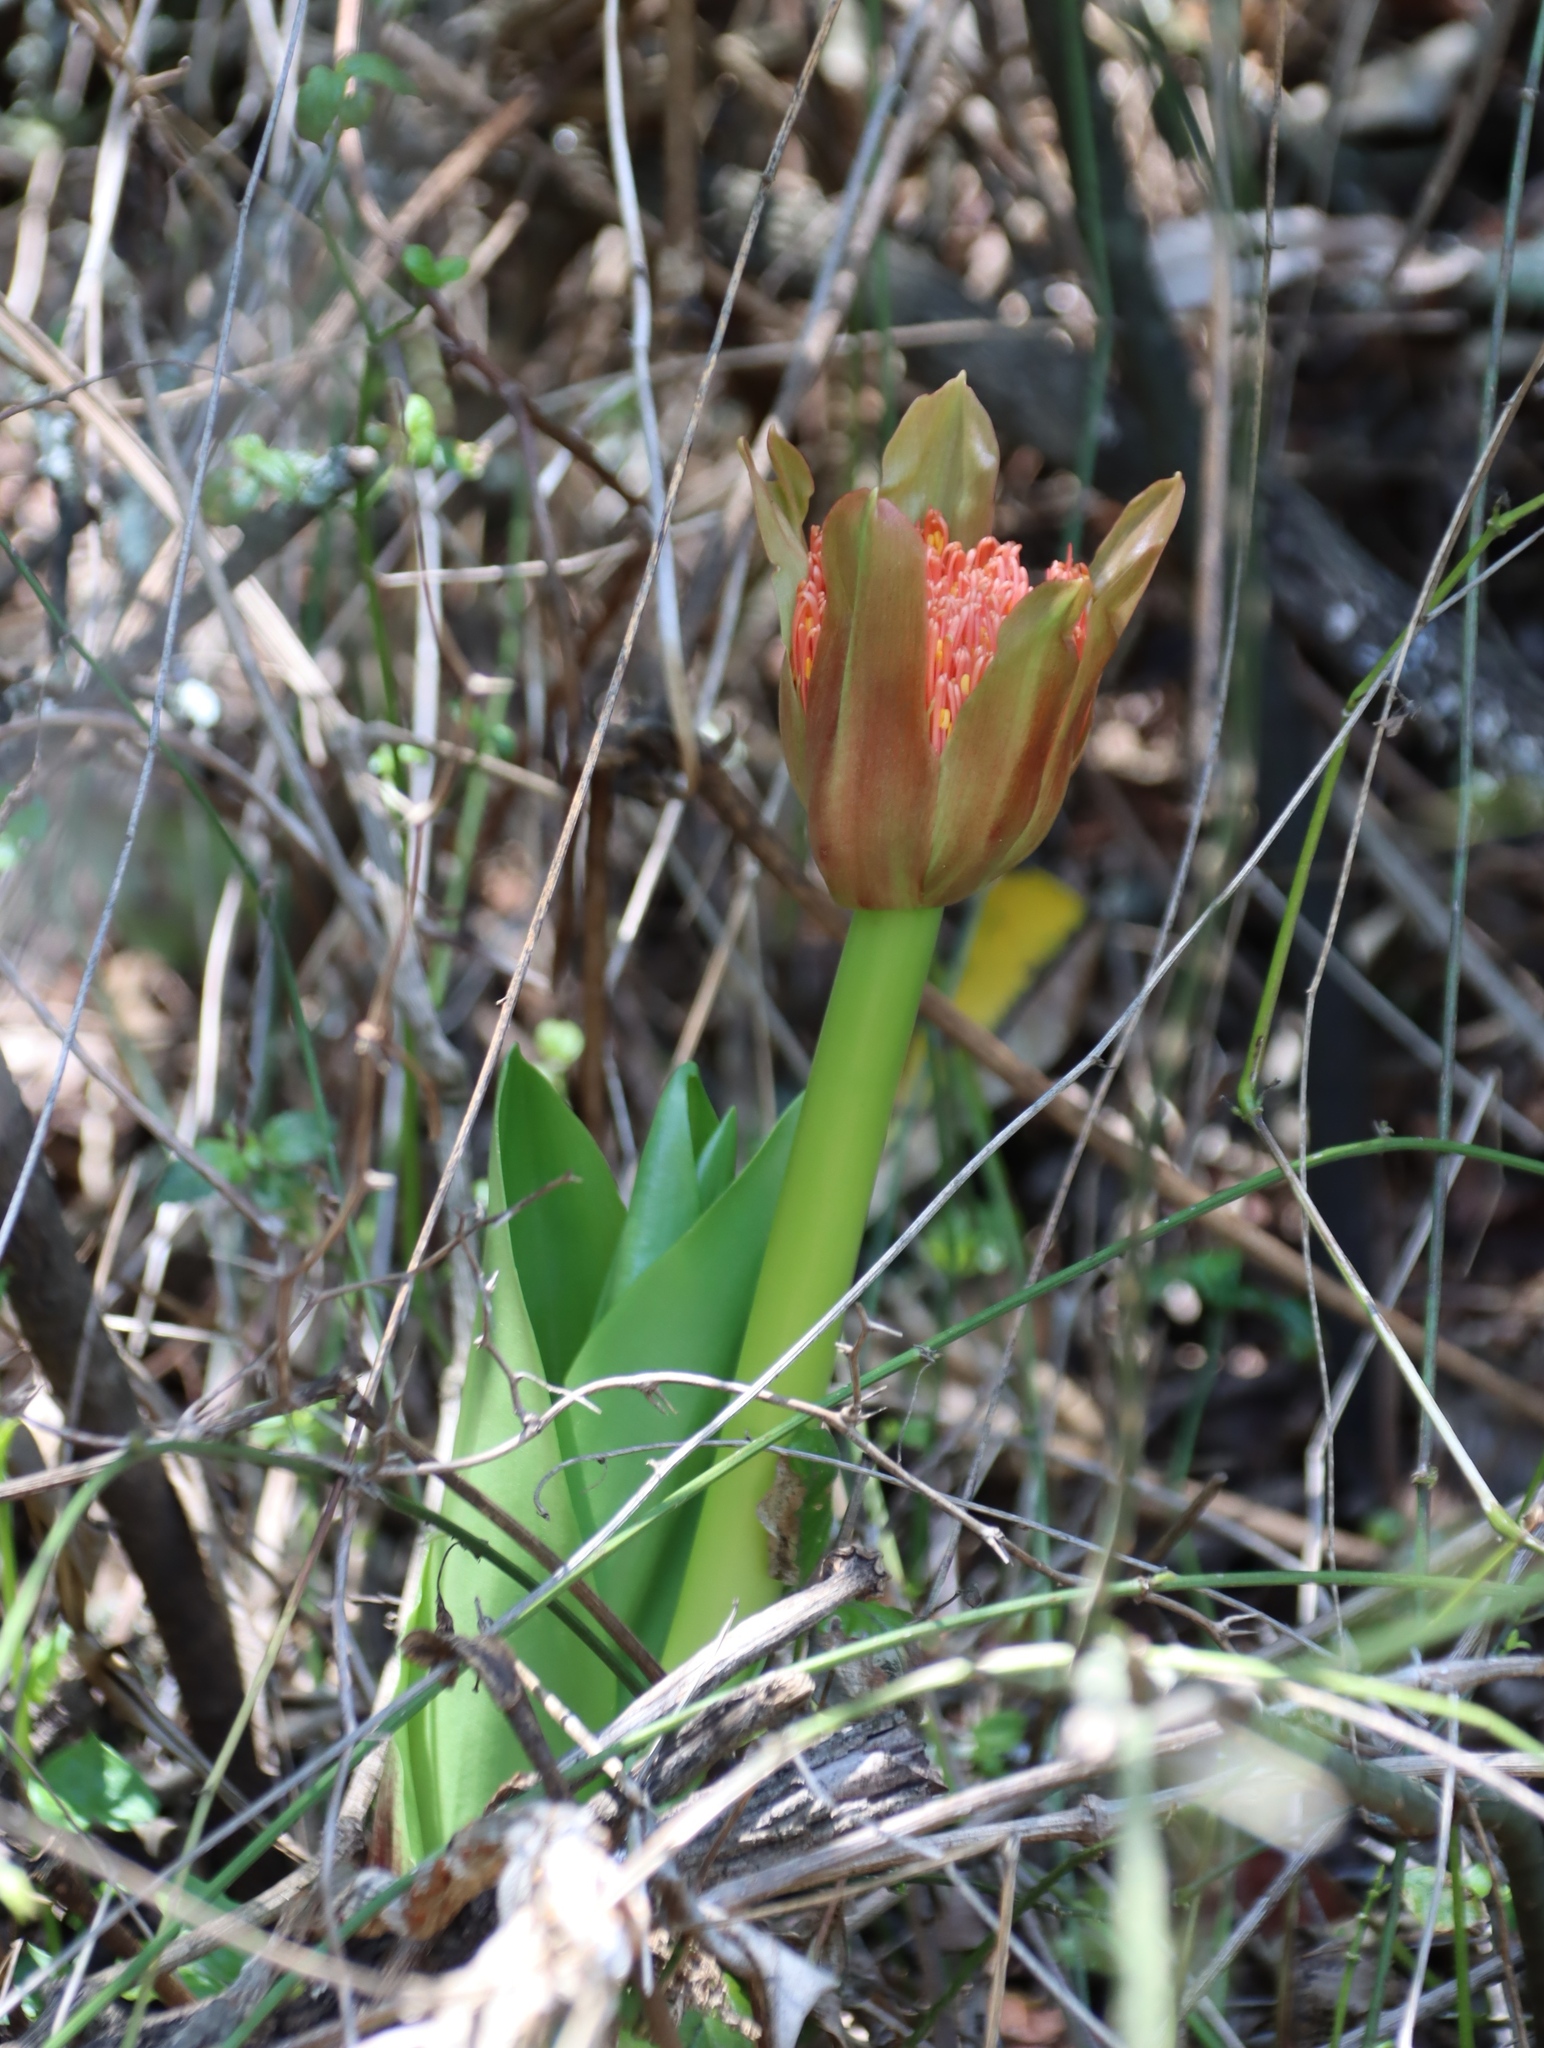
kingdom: Plantae
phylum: Tracheophyta
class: Liliopsida
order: Asparagales
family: Amaryllidaceae
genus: Scadoxus
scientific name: Scadoxus puniceus
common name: Royal-paintbrush
